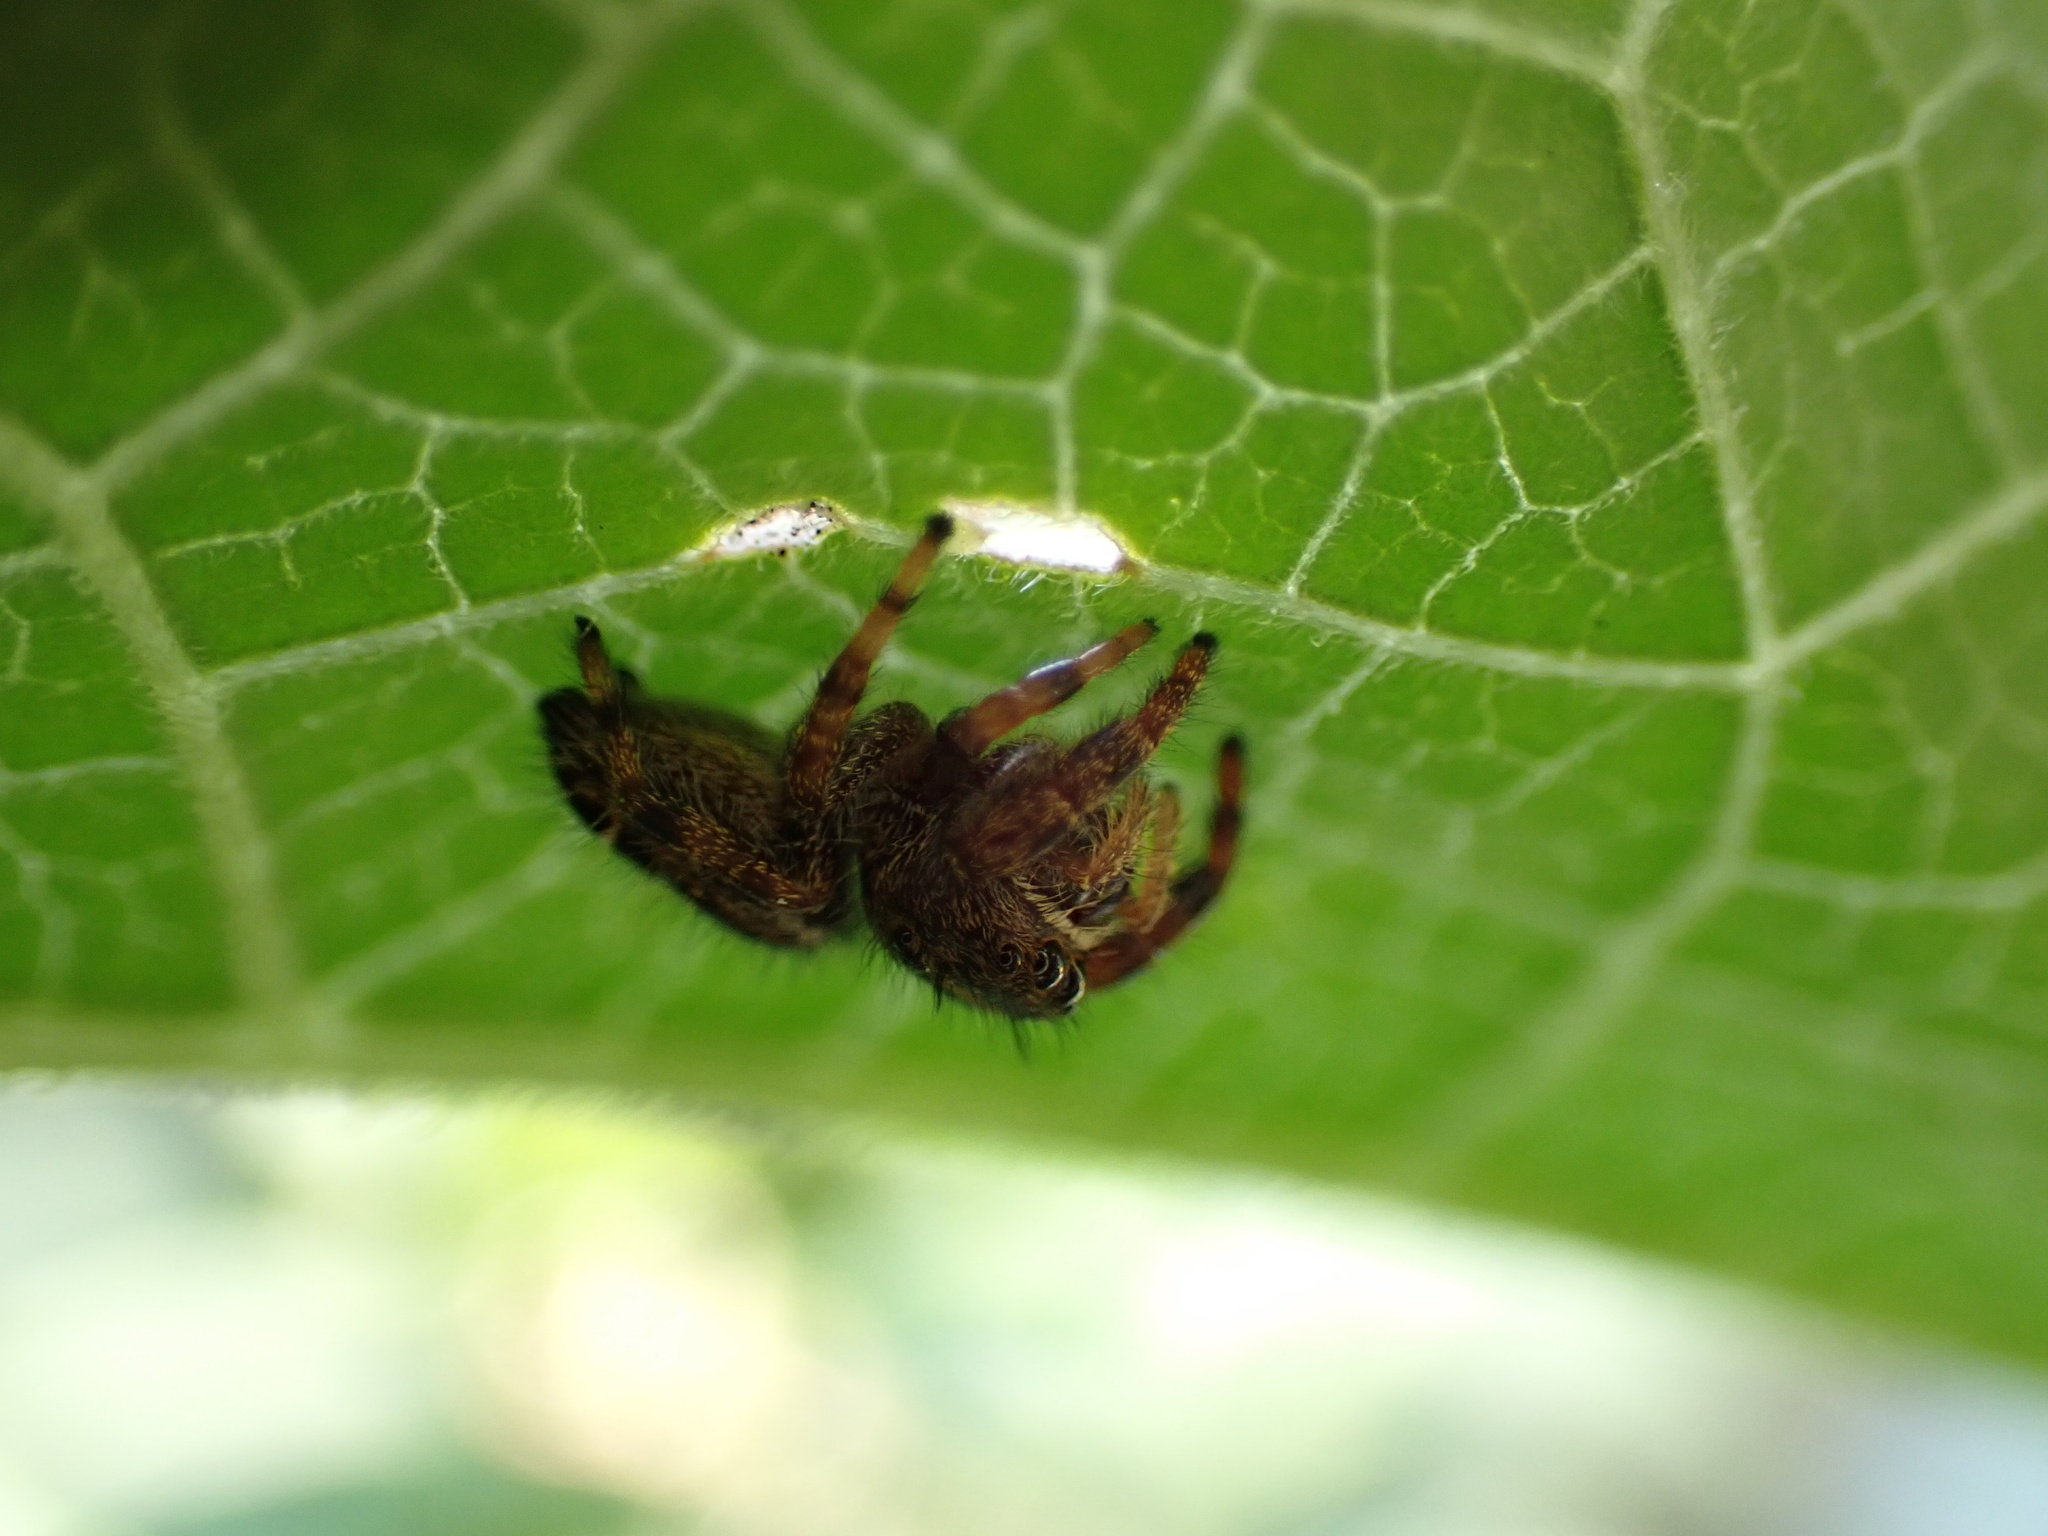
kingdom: Animalia
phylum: Arthropoda
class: Arachnida
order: Araneae
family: Salticidae
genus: Phidippus
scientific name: Phidippus audax
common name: Bold jumper
